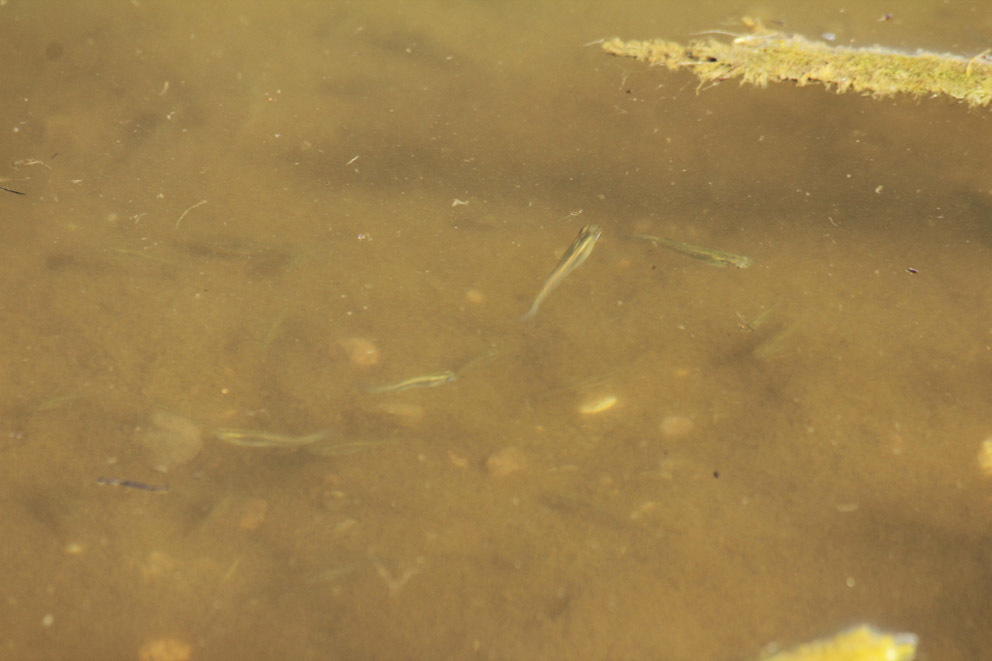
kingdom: Animalia
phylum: Chordata
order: Cyprinodontiformes
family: Poeciliidae
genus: Gambusia
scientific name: Gambusia
